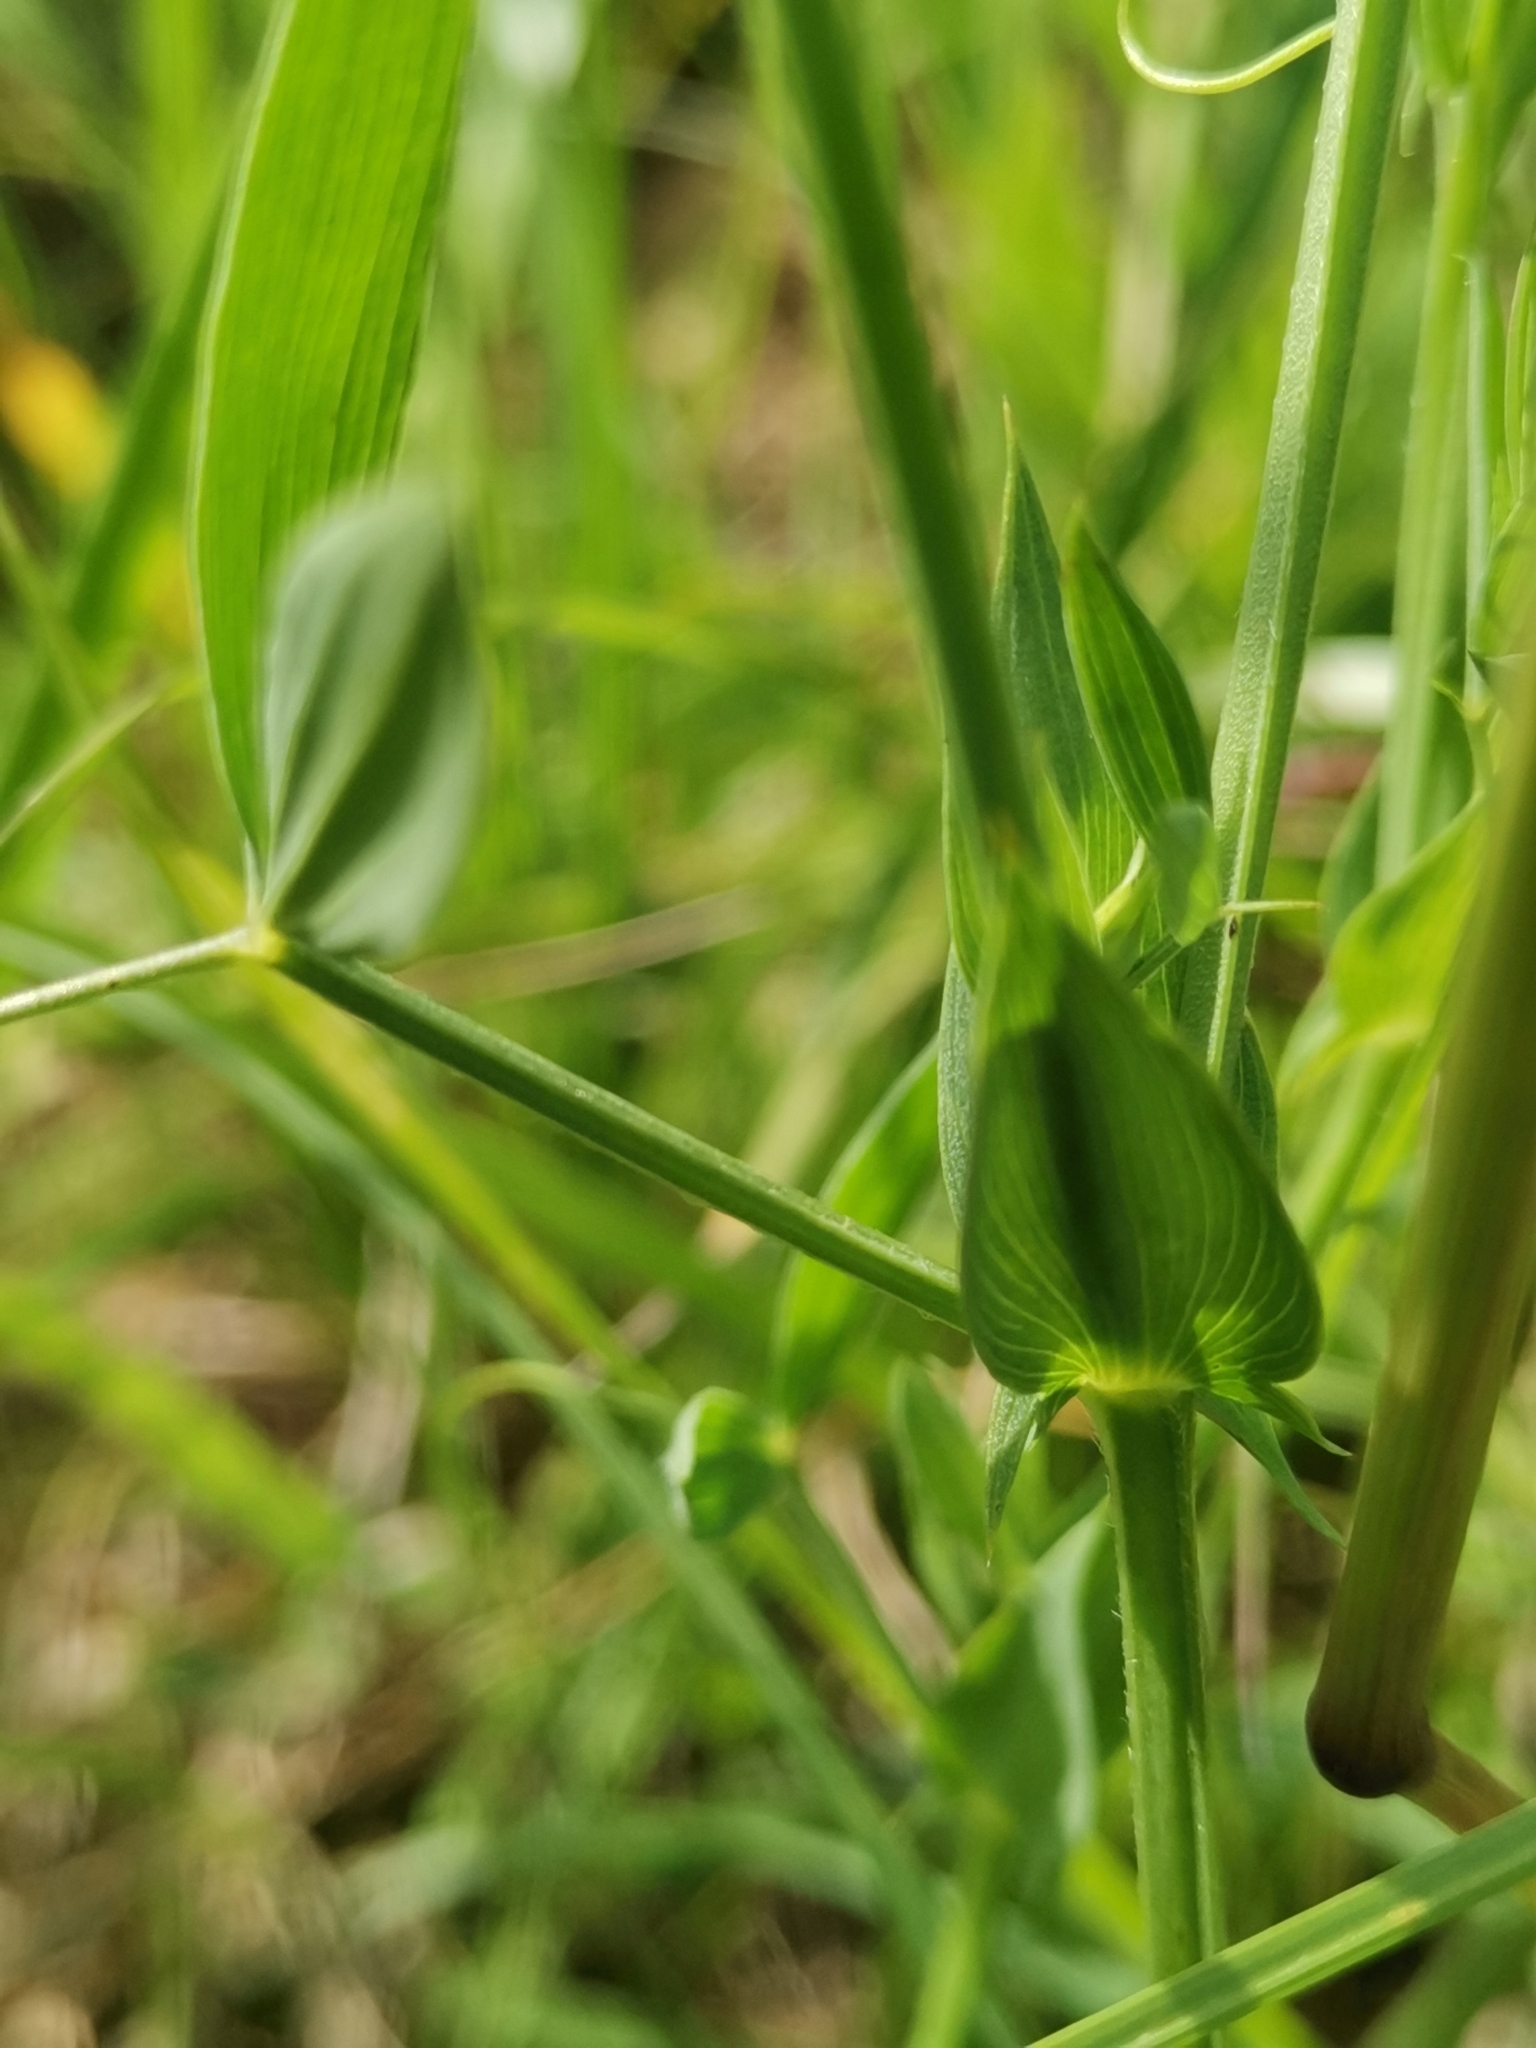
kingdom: Plantae
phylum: Tracheophyta
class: Magnoliopsida
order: Fabales
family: Fabaceae
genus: Lathyrus
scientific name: Lathyrus pratensis
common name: Meadow vetchling
